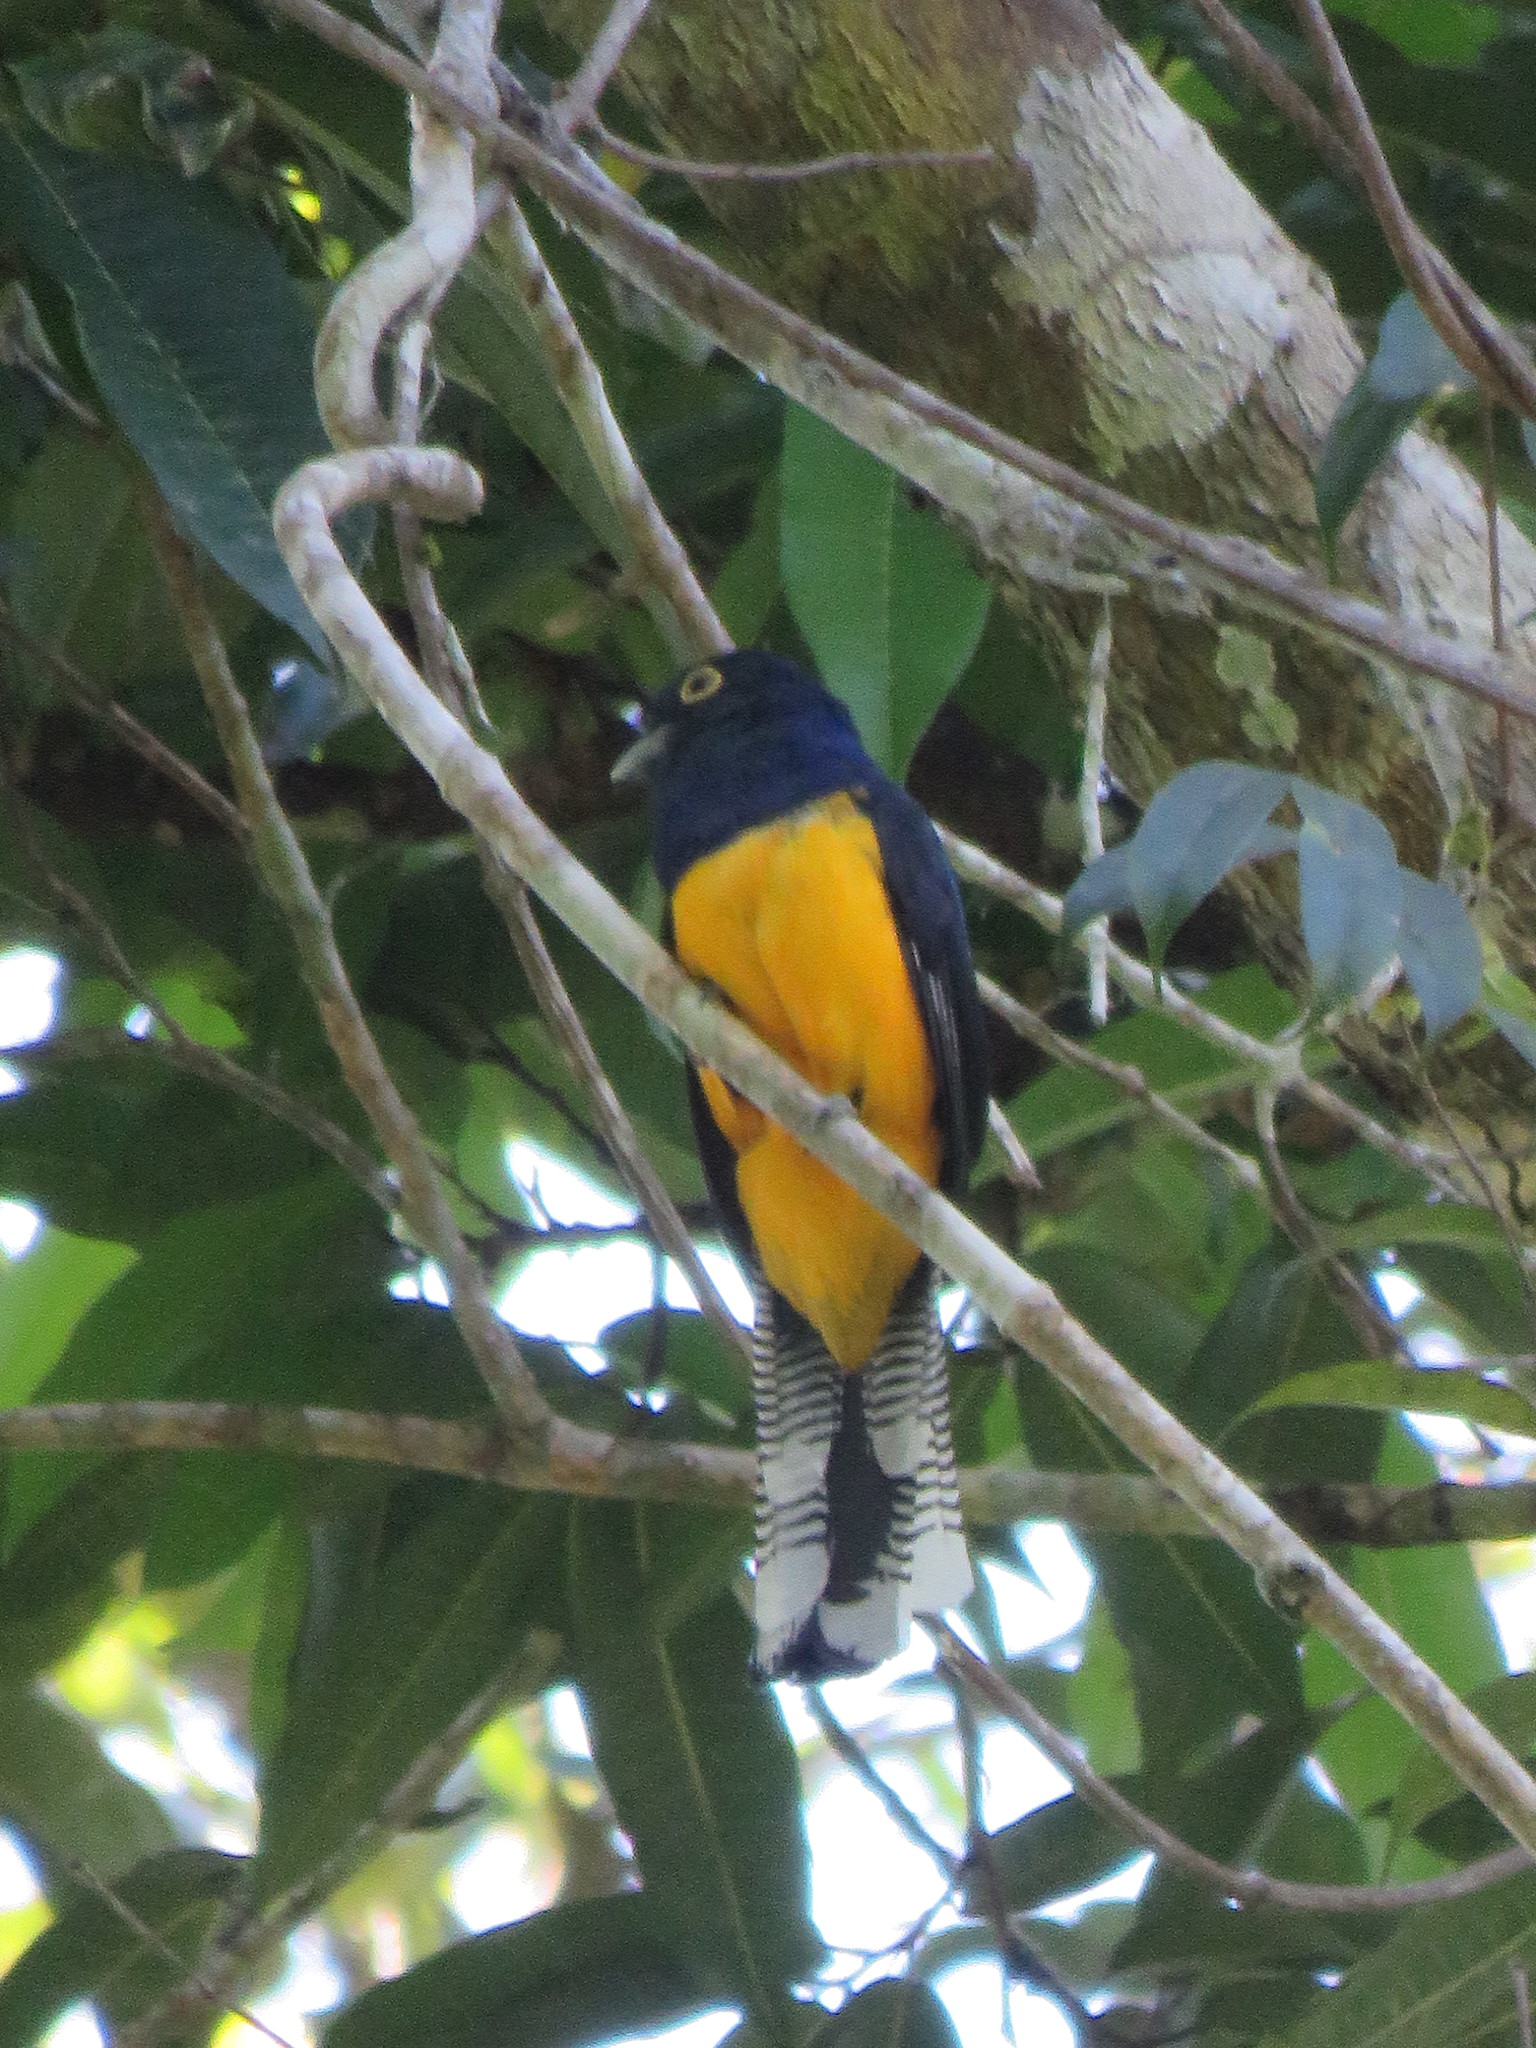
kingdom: Animalia
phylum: Chordata
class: Aves
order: Trogoniformes
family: Trogonidae
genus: Trogon
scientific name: Trogon ramonianus
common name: Amazonian trogon
